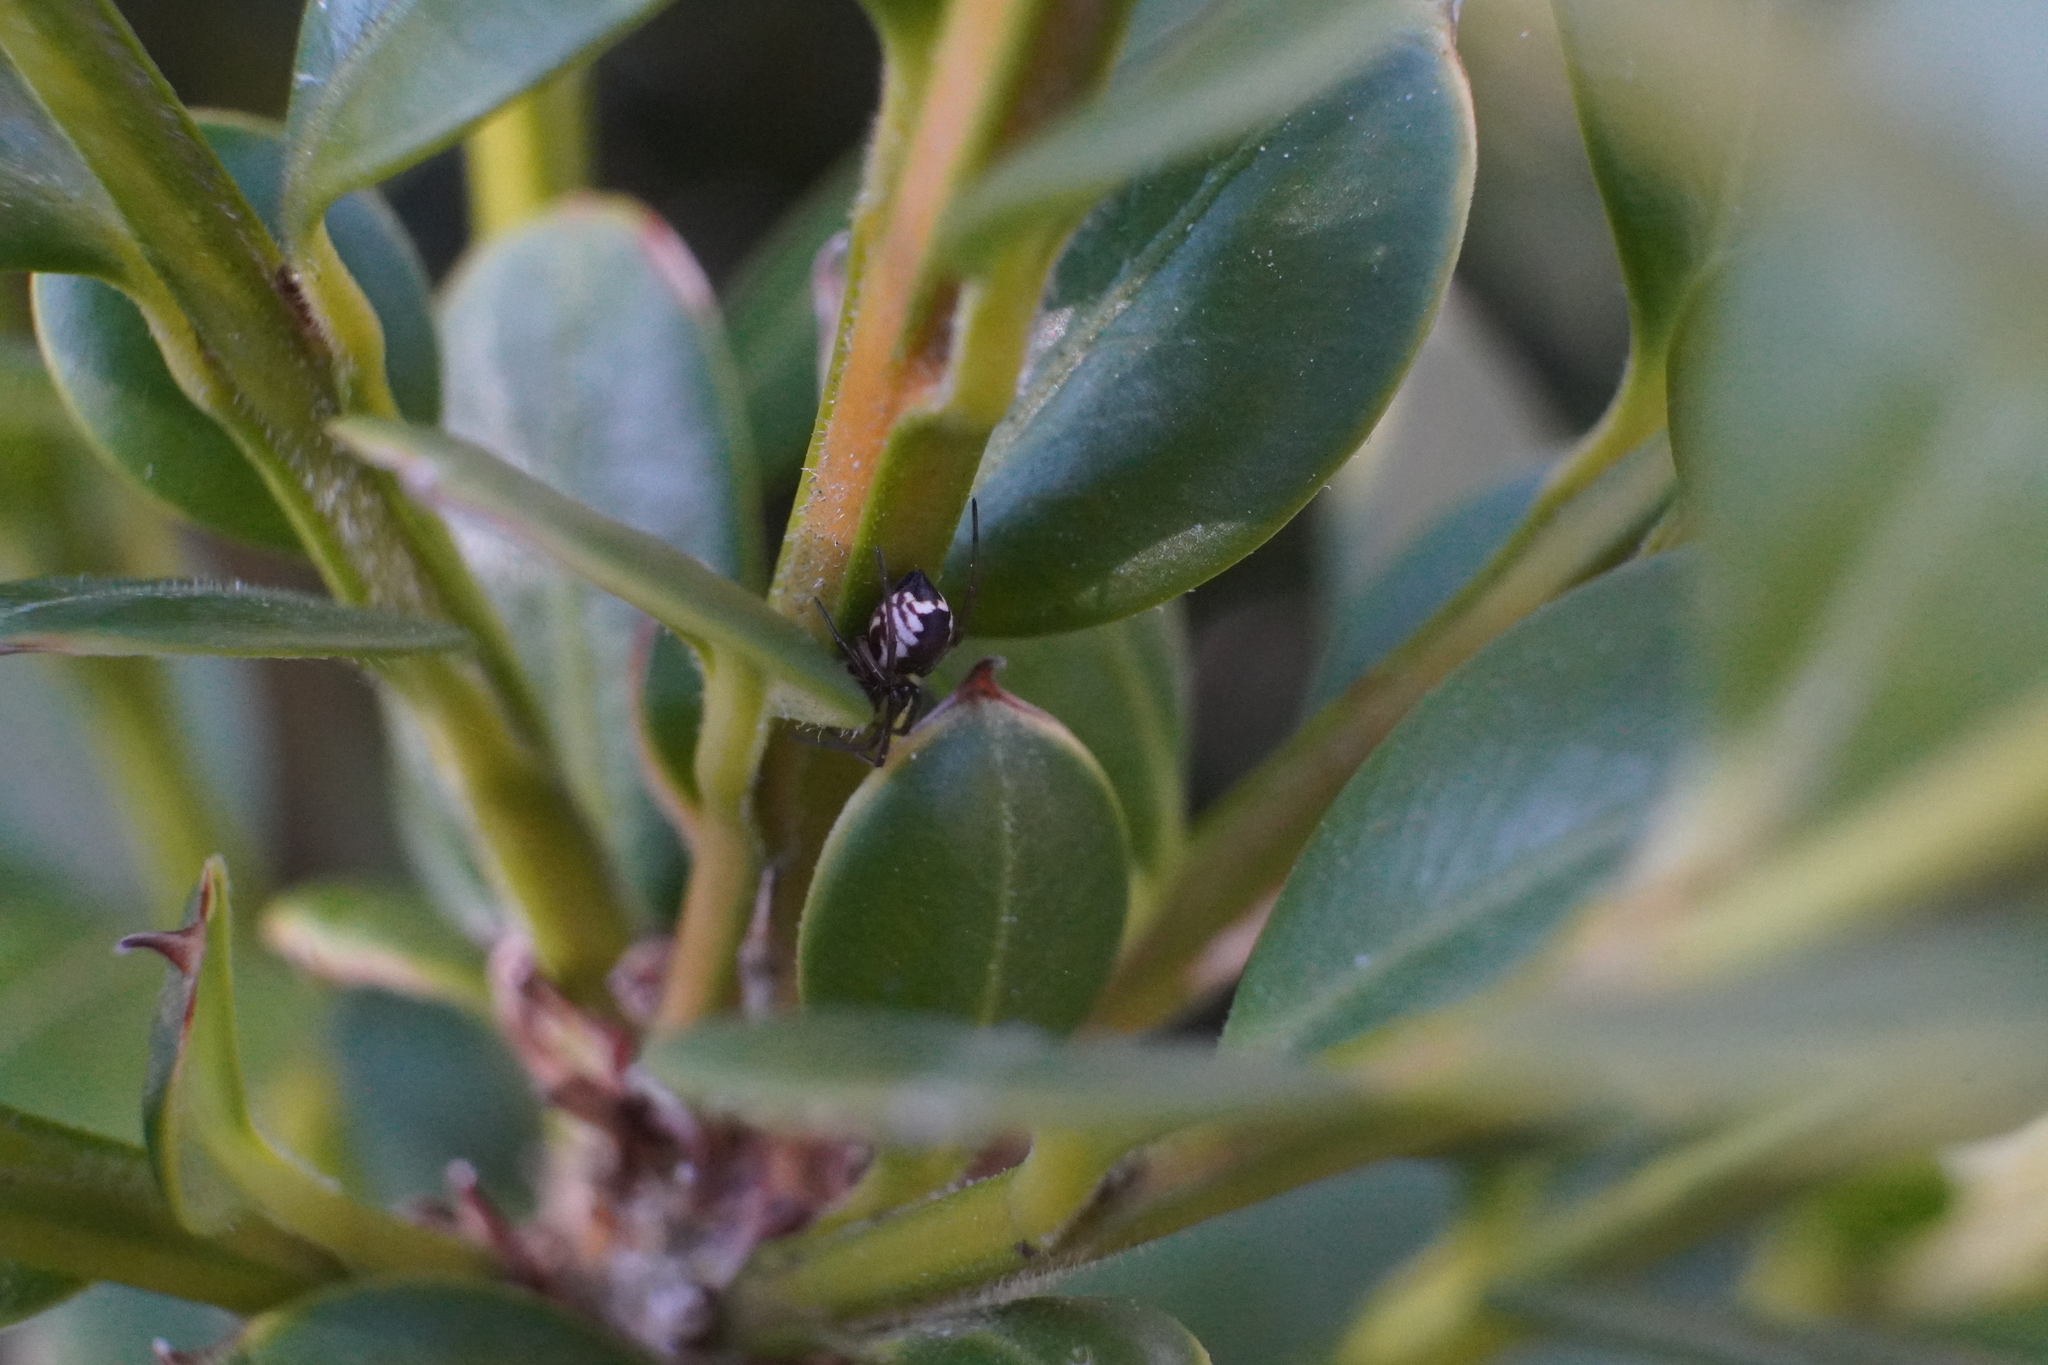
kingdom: Animalia
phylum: Arthropoda
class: Arachnida
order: Araneae
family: Linyphiidae
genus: Frontinella
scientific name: Frontinella pyramitela
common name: Bowl-and-doily spider
